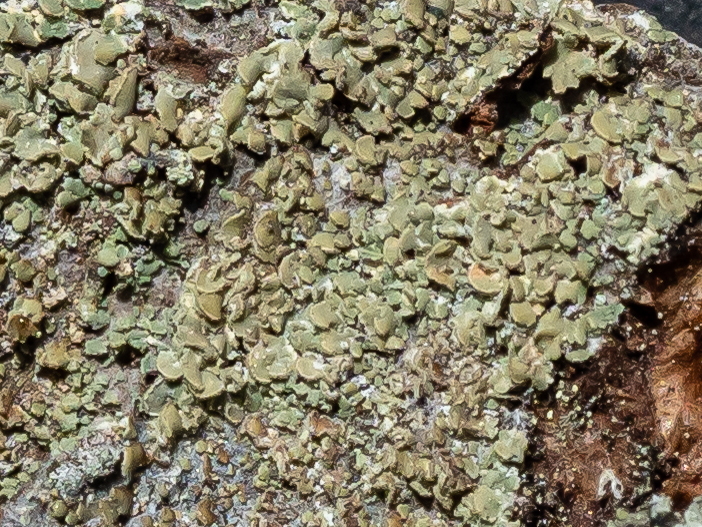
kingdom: Fungi
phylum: Ascomycota
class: Lecanoromycetes
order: Umbilicariales
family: Ophioparmaceae
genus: Hypocenomyce
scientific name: Hypocenomyce scalaris
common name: Common clam lichen
